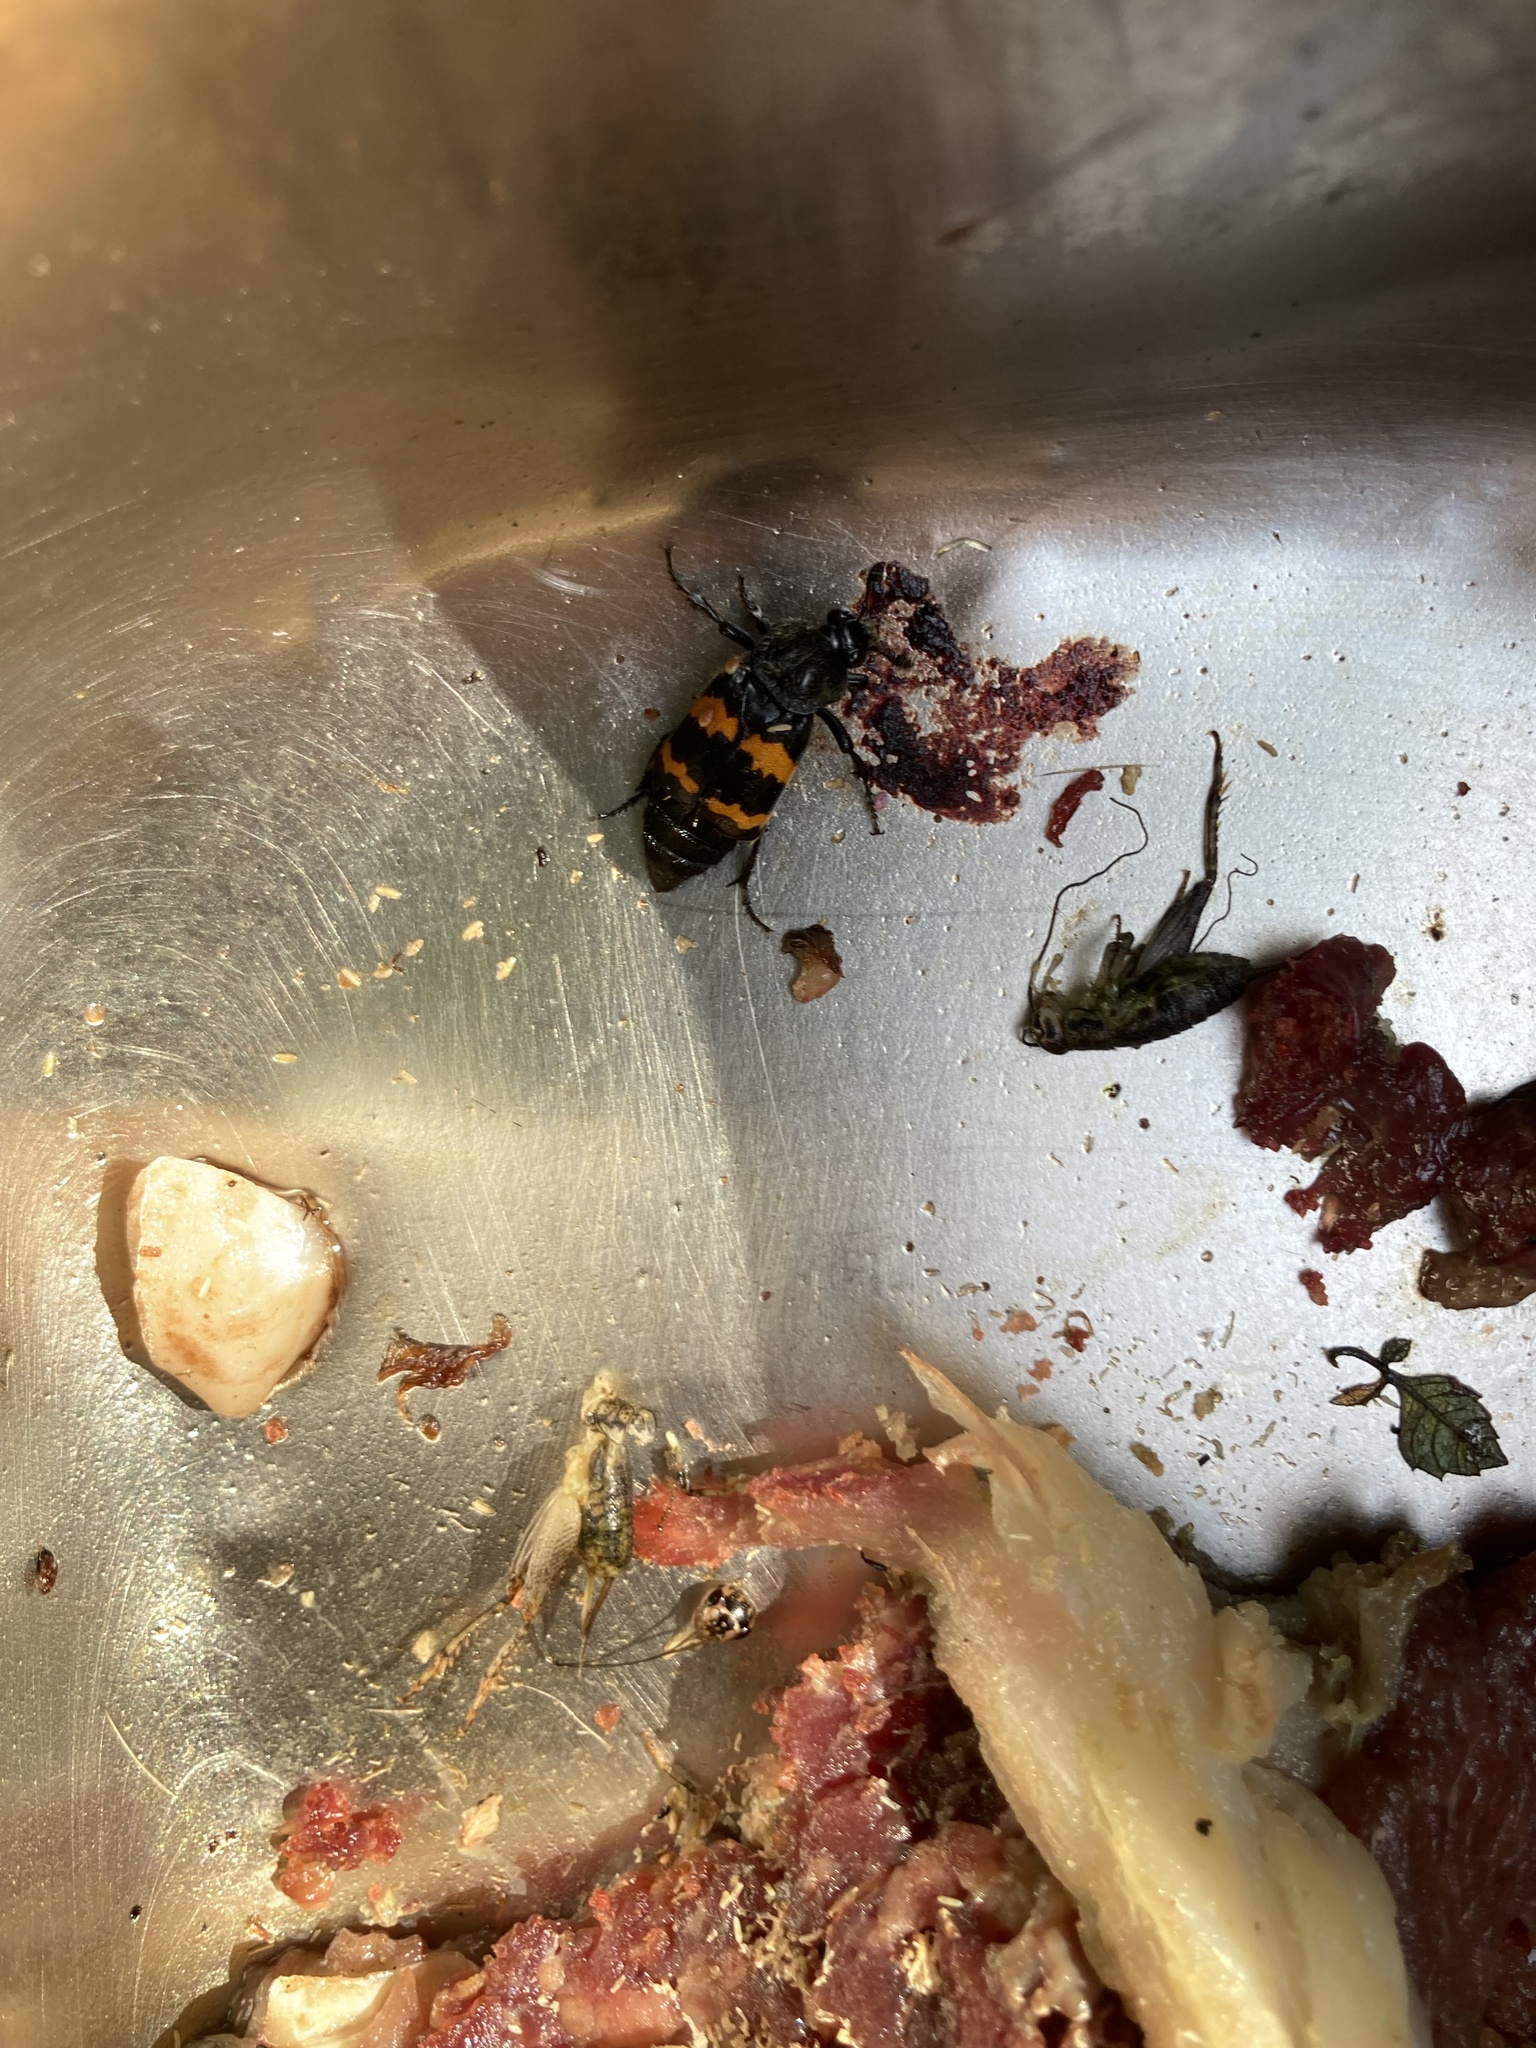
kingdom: Animalia
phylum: Arthropoda
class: Insecta
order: Coleoptera
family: Staphylinidae
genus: Nicrophorus
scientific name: Nicrophorus tomentosus
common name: Tomentose burying beetle
